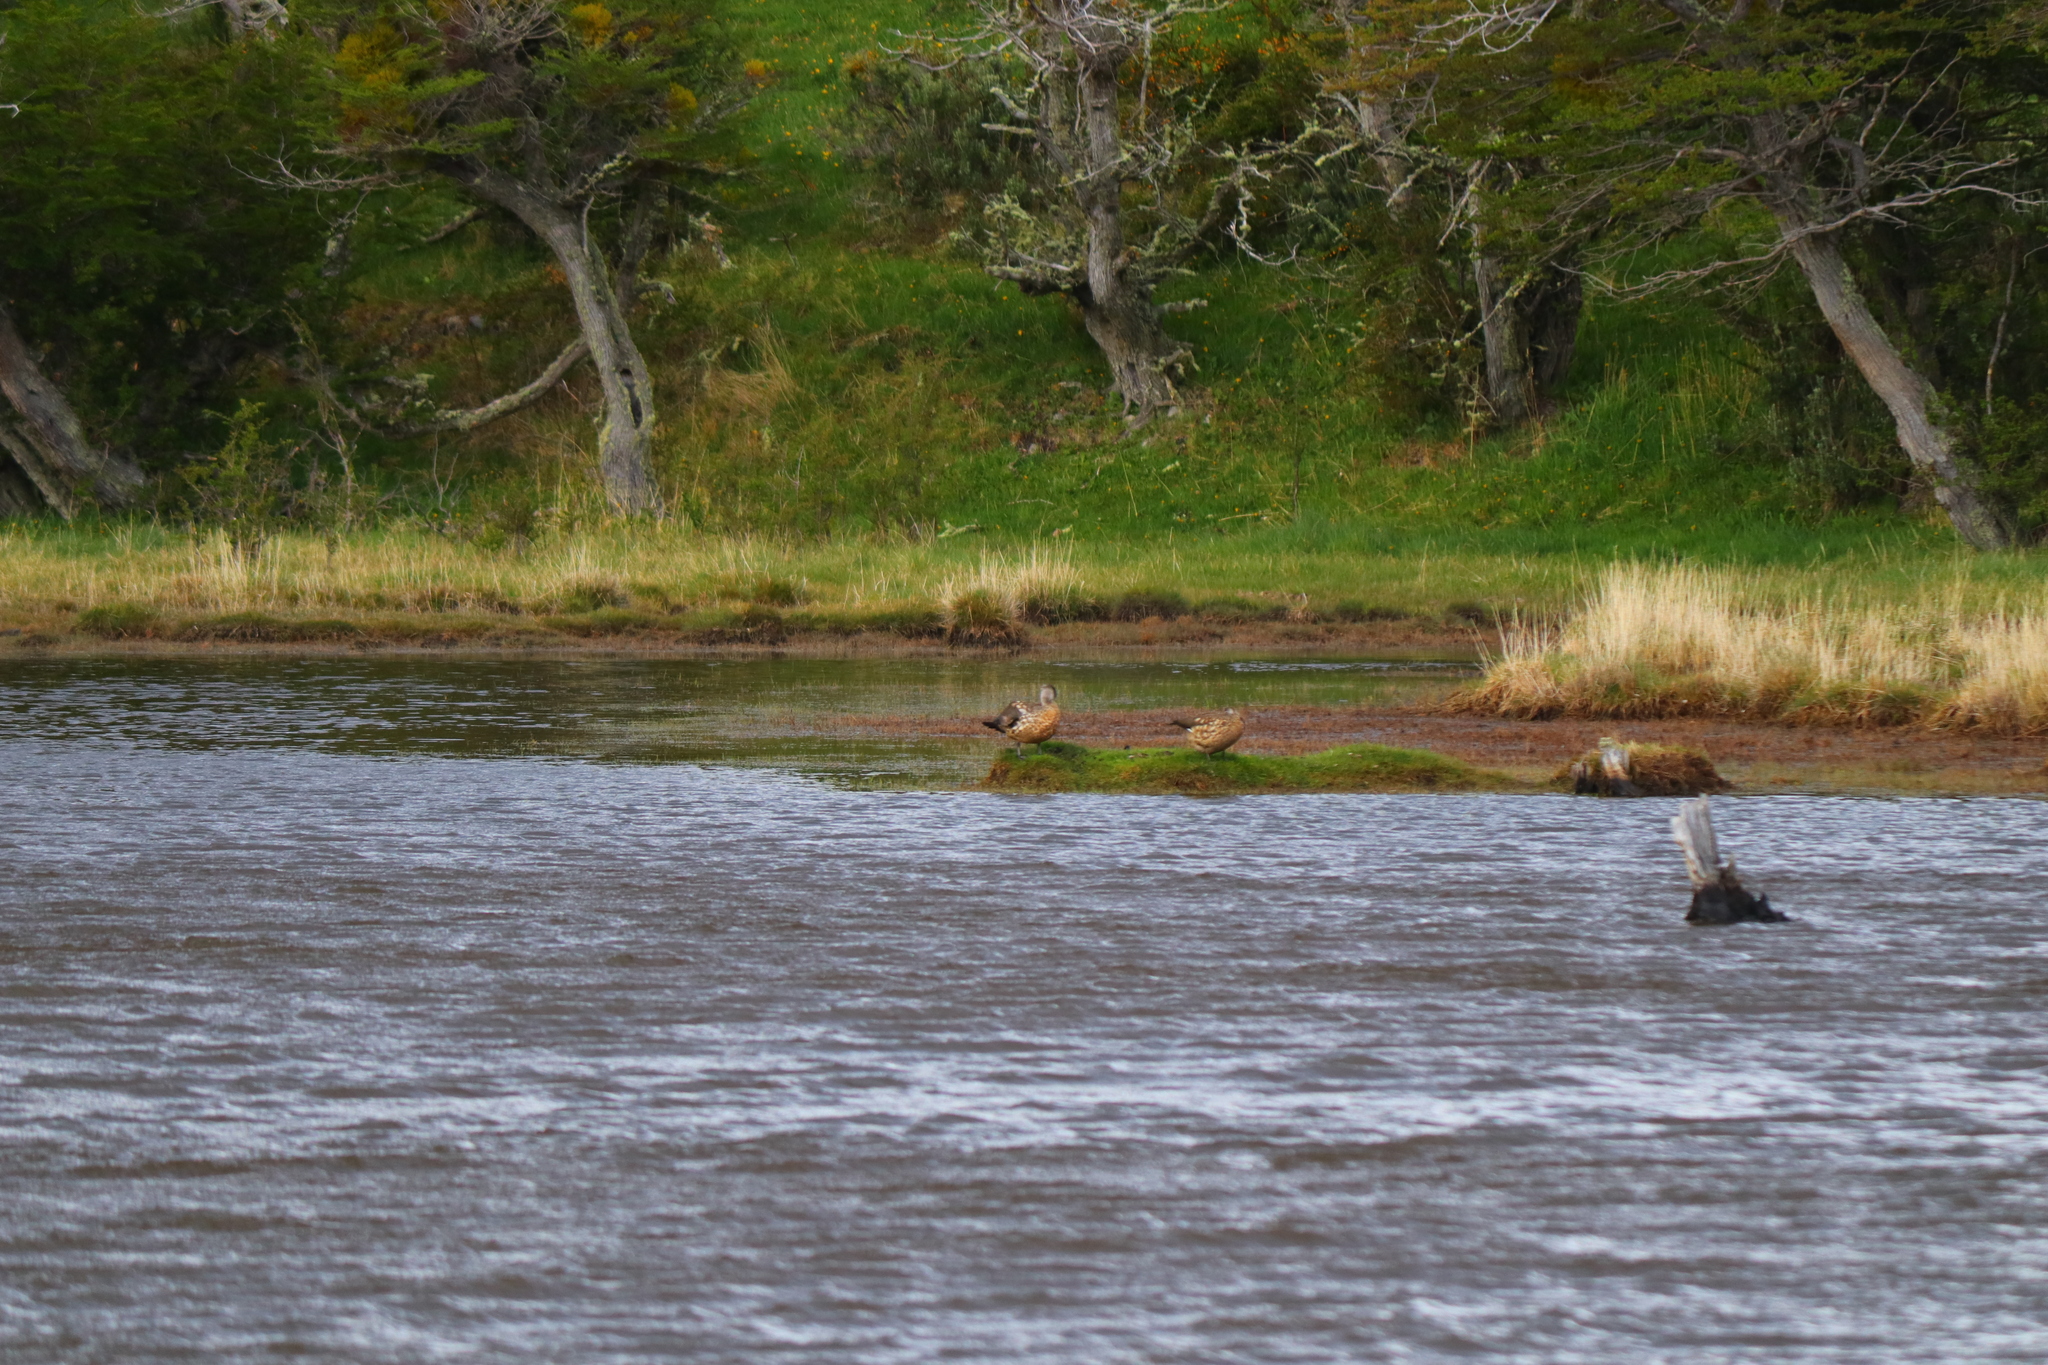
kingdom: Animalia
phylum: Chordata
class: Aves
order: Anseriformes
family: Anatidae
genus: Lophonetta
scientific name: Lophonetta specularioides
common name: Crested duck
